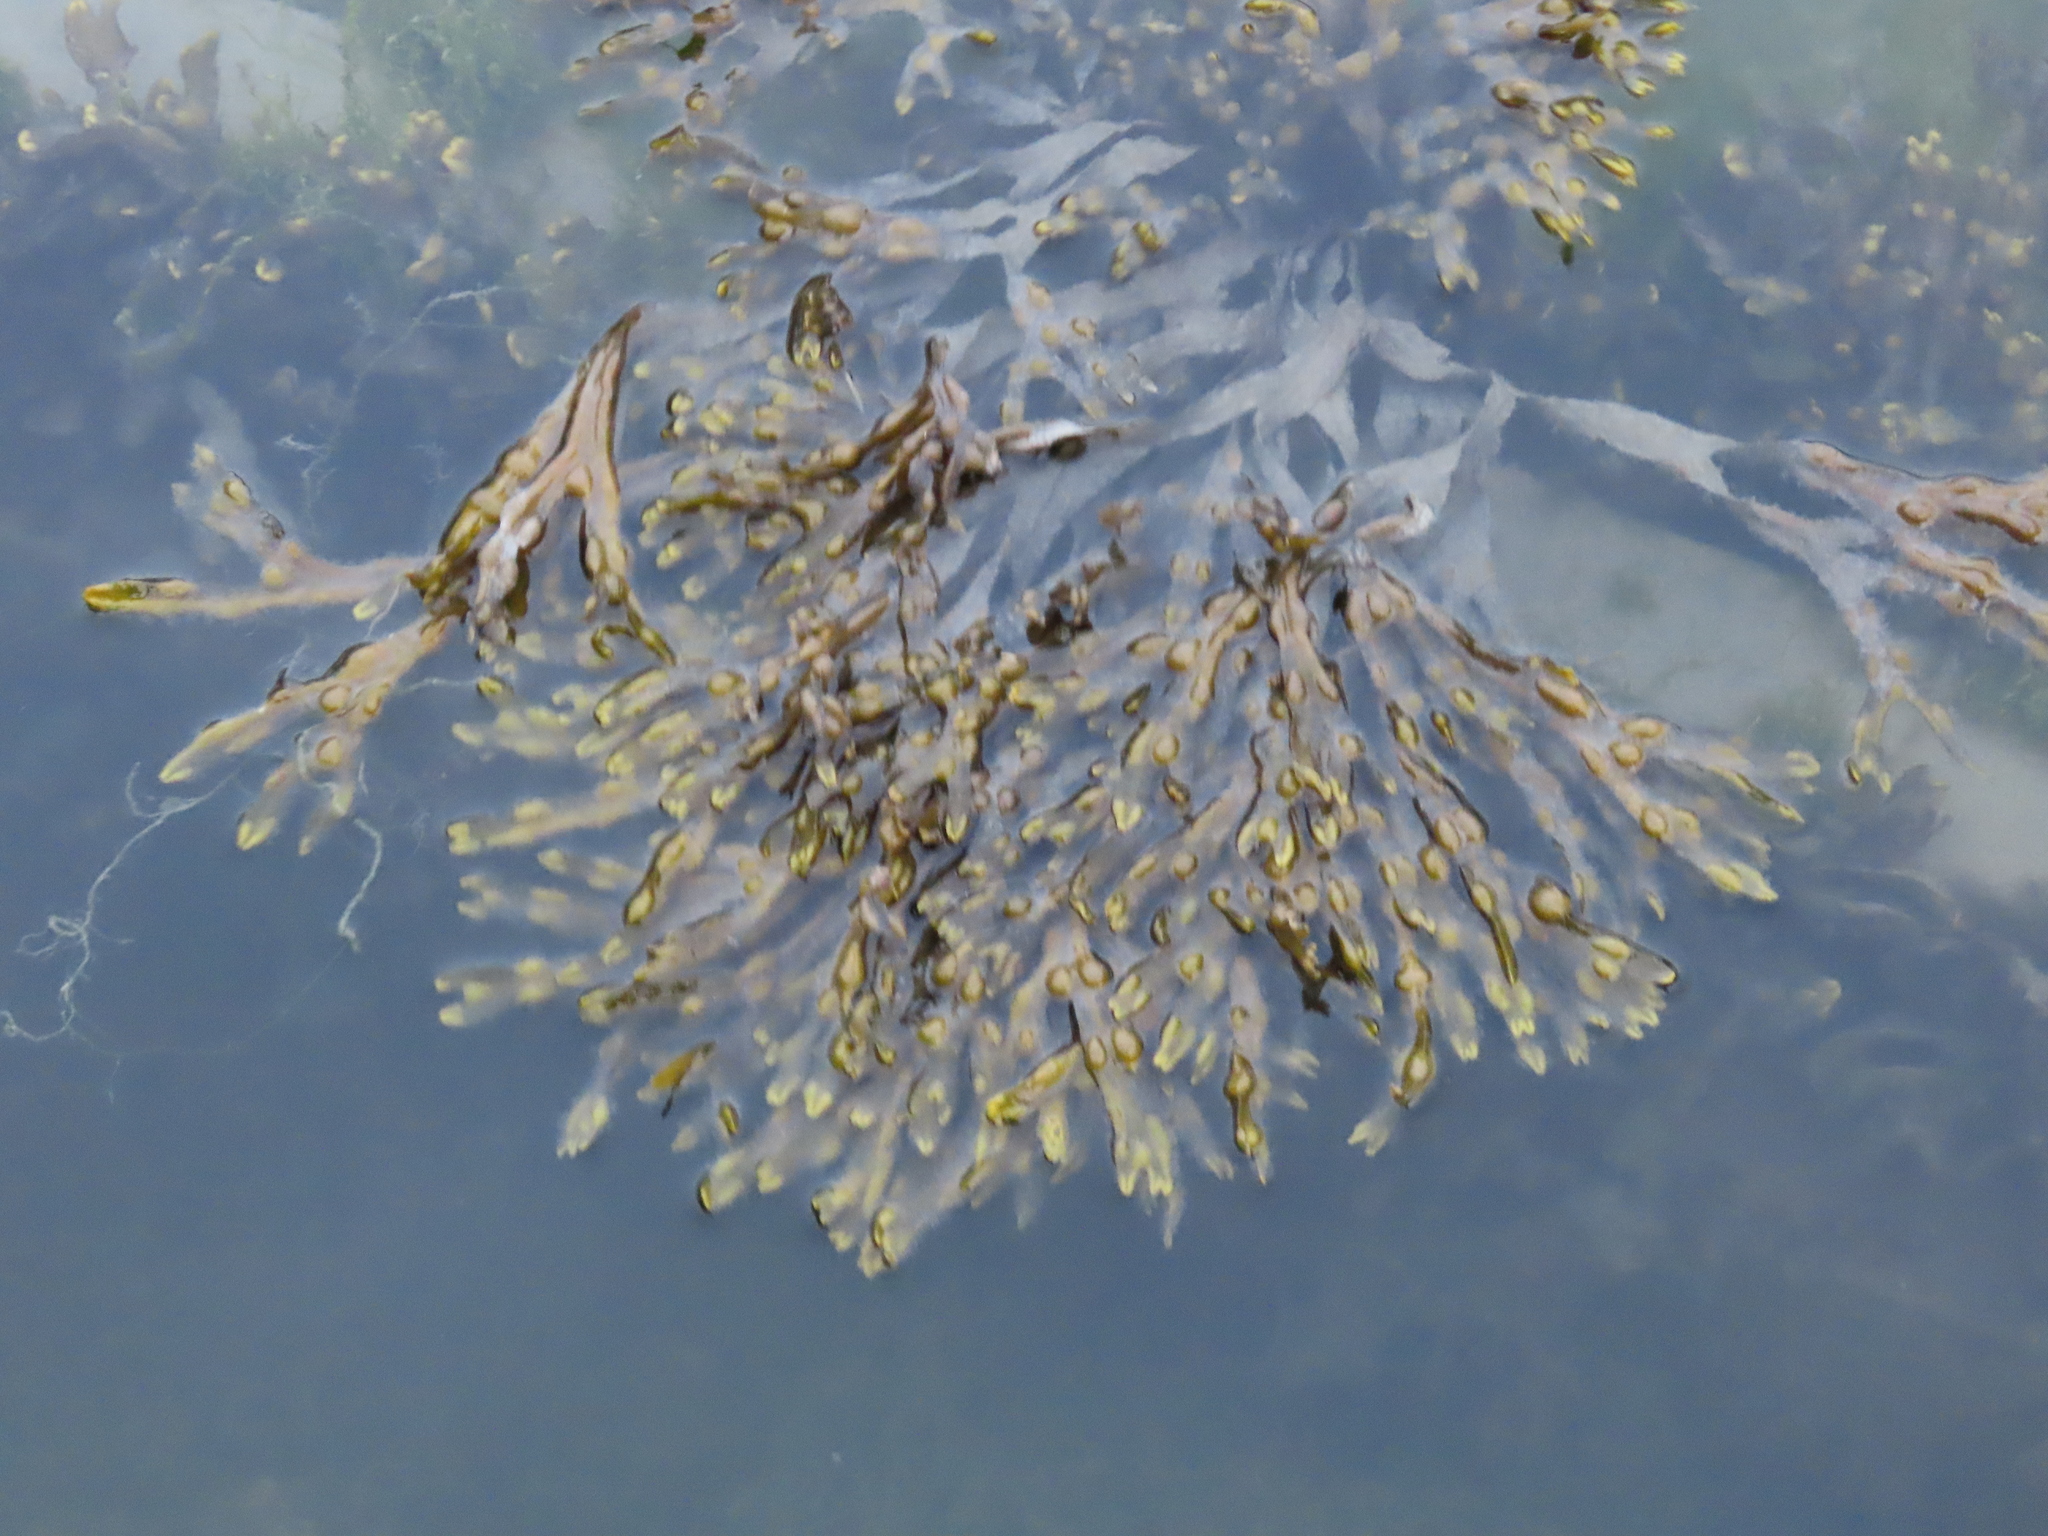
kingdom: Chromista
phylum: Ochrophyta
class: Phaeophyceae
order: Fucales
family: Fucaceae
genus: Fucus
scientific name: Fucus vesiculosus
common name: Bladder wrack
